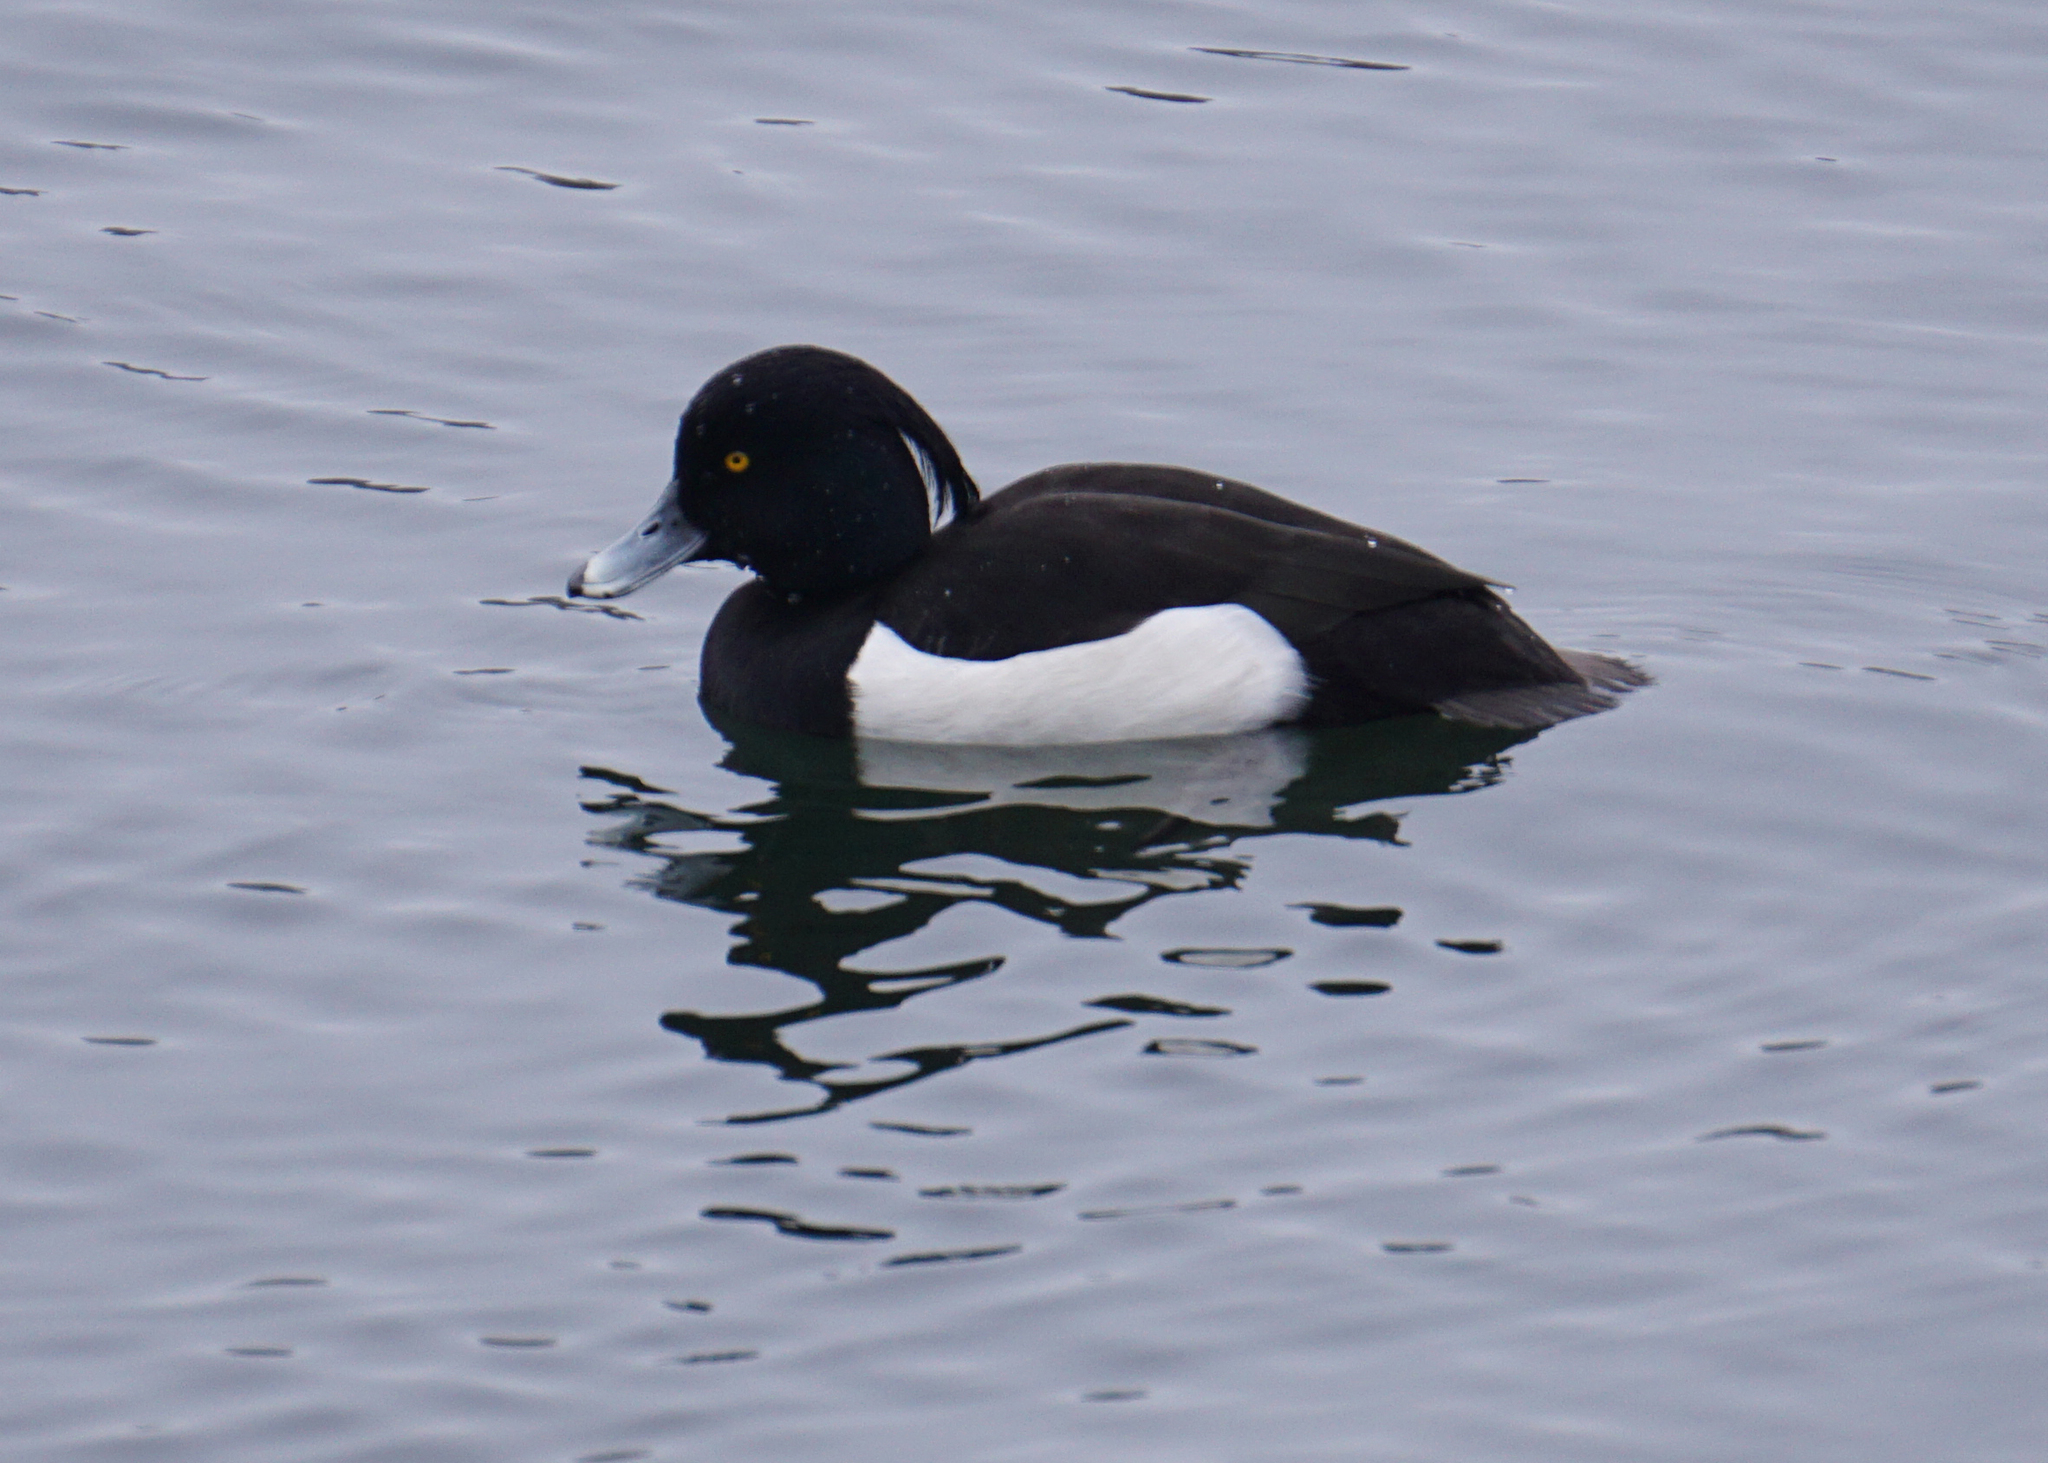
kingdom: Animalia
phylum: Chordata
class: Aves
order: Anseriformes
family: Anatidae
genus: Aythya
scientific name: Aythya fuligula
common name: Tufted duck
